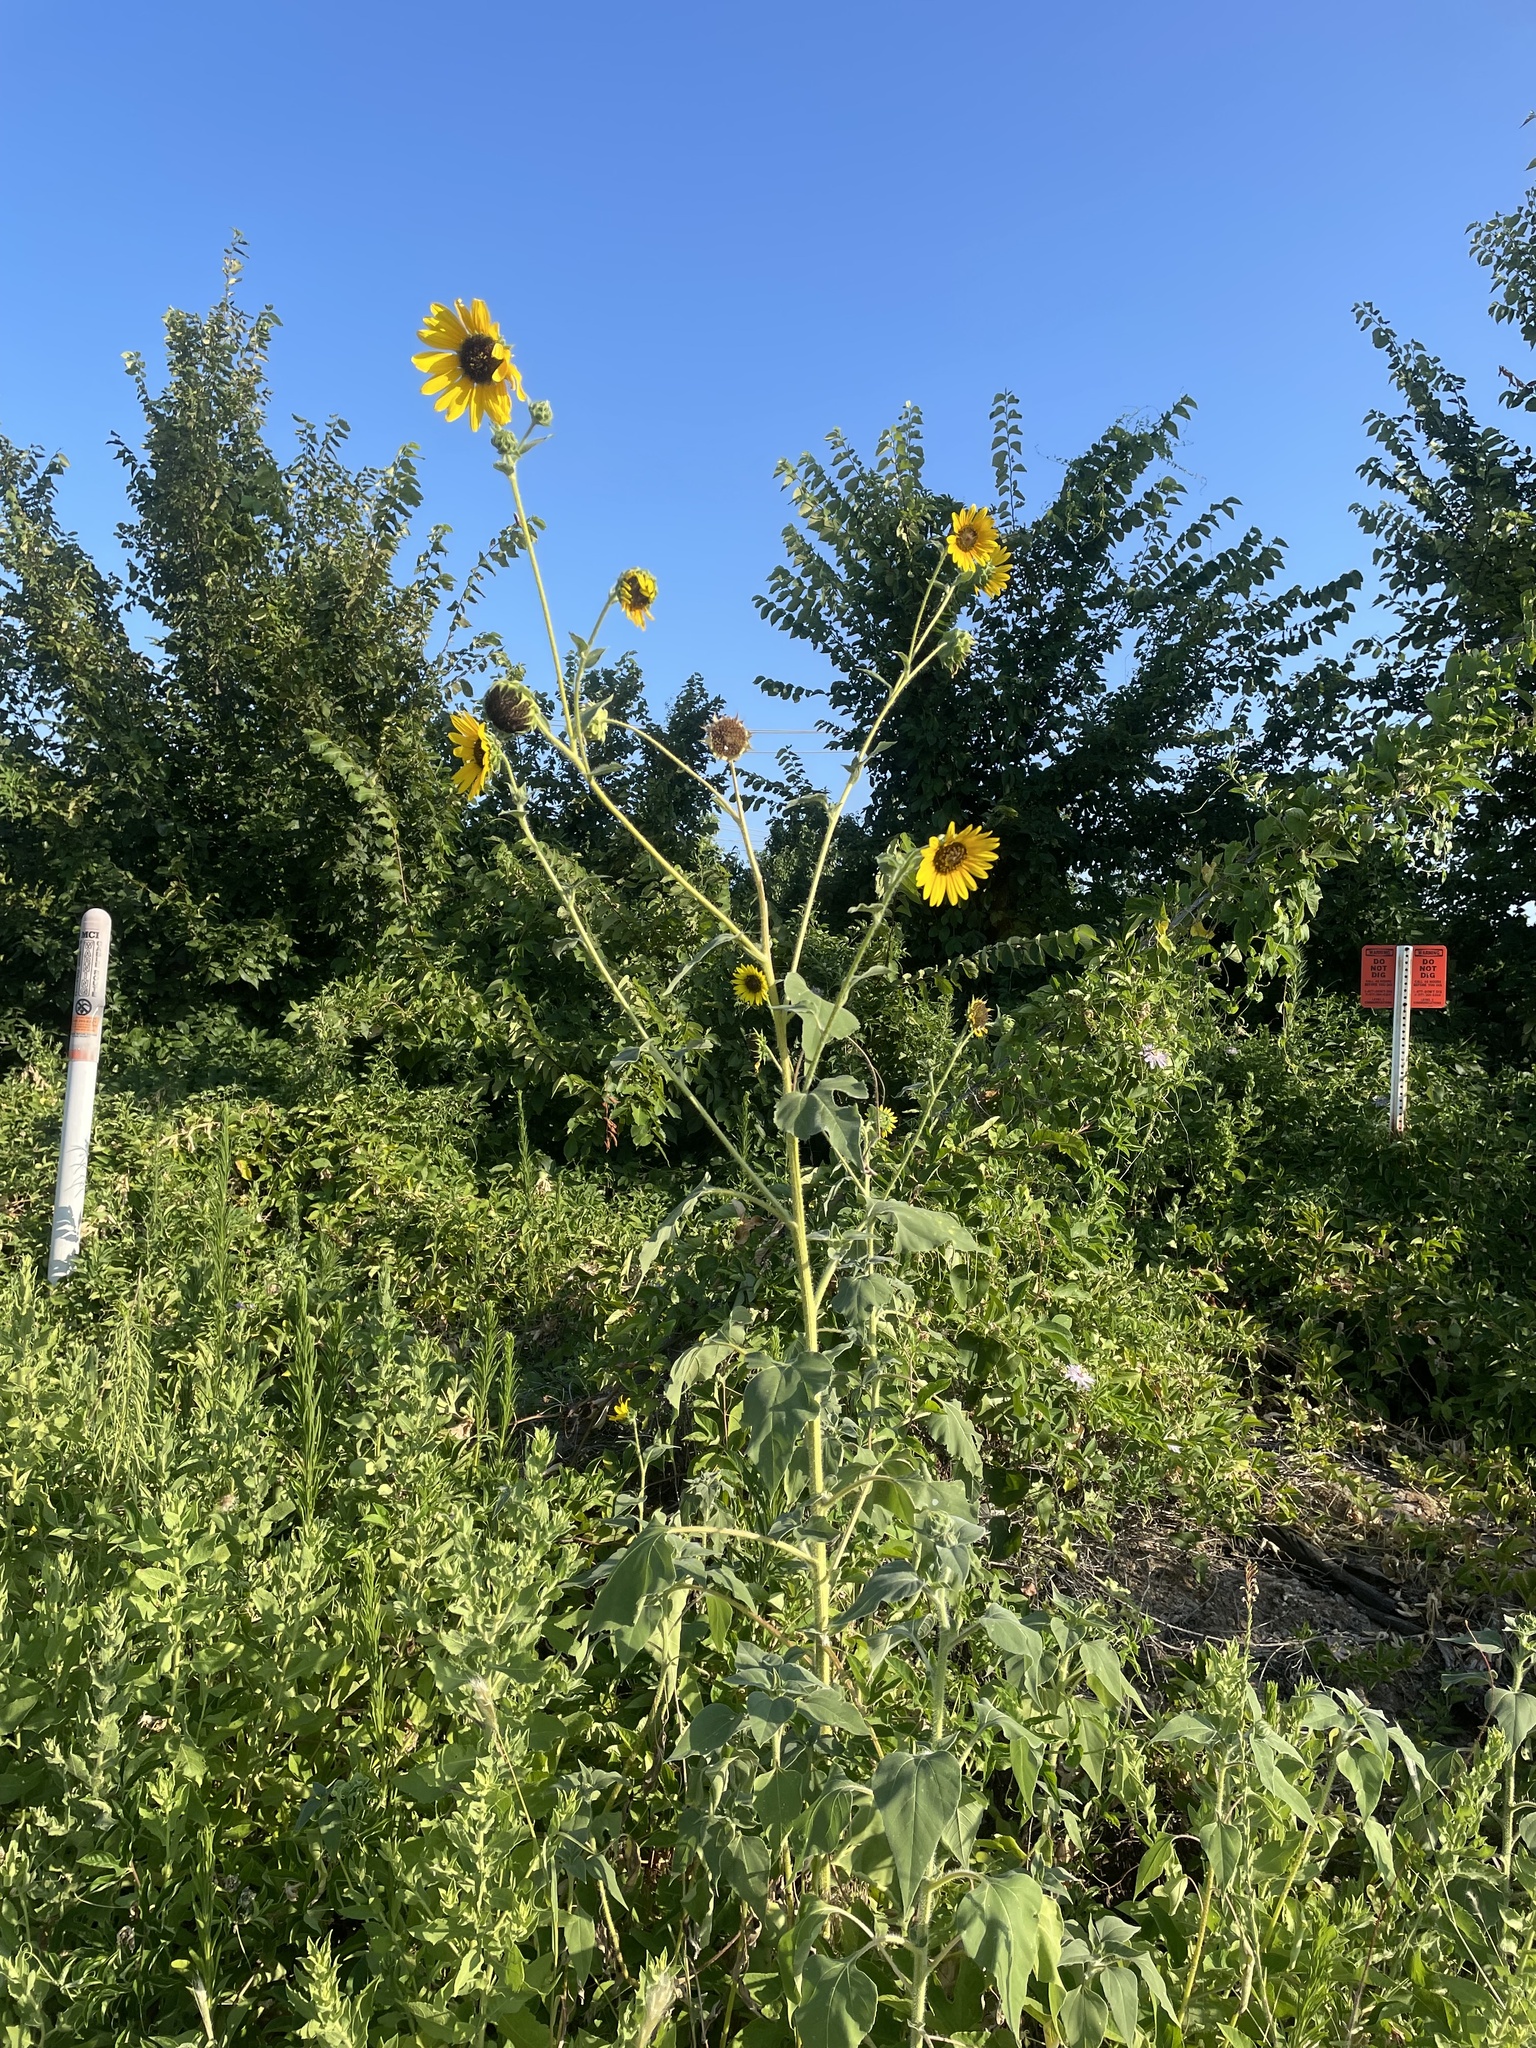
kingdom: Plantae
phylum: Tracheophyta
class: Magnoliopsida
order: Asterales
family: Asteraceae
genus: Helianthus
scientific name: Helianthus annuus
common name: Sunflower
